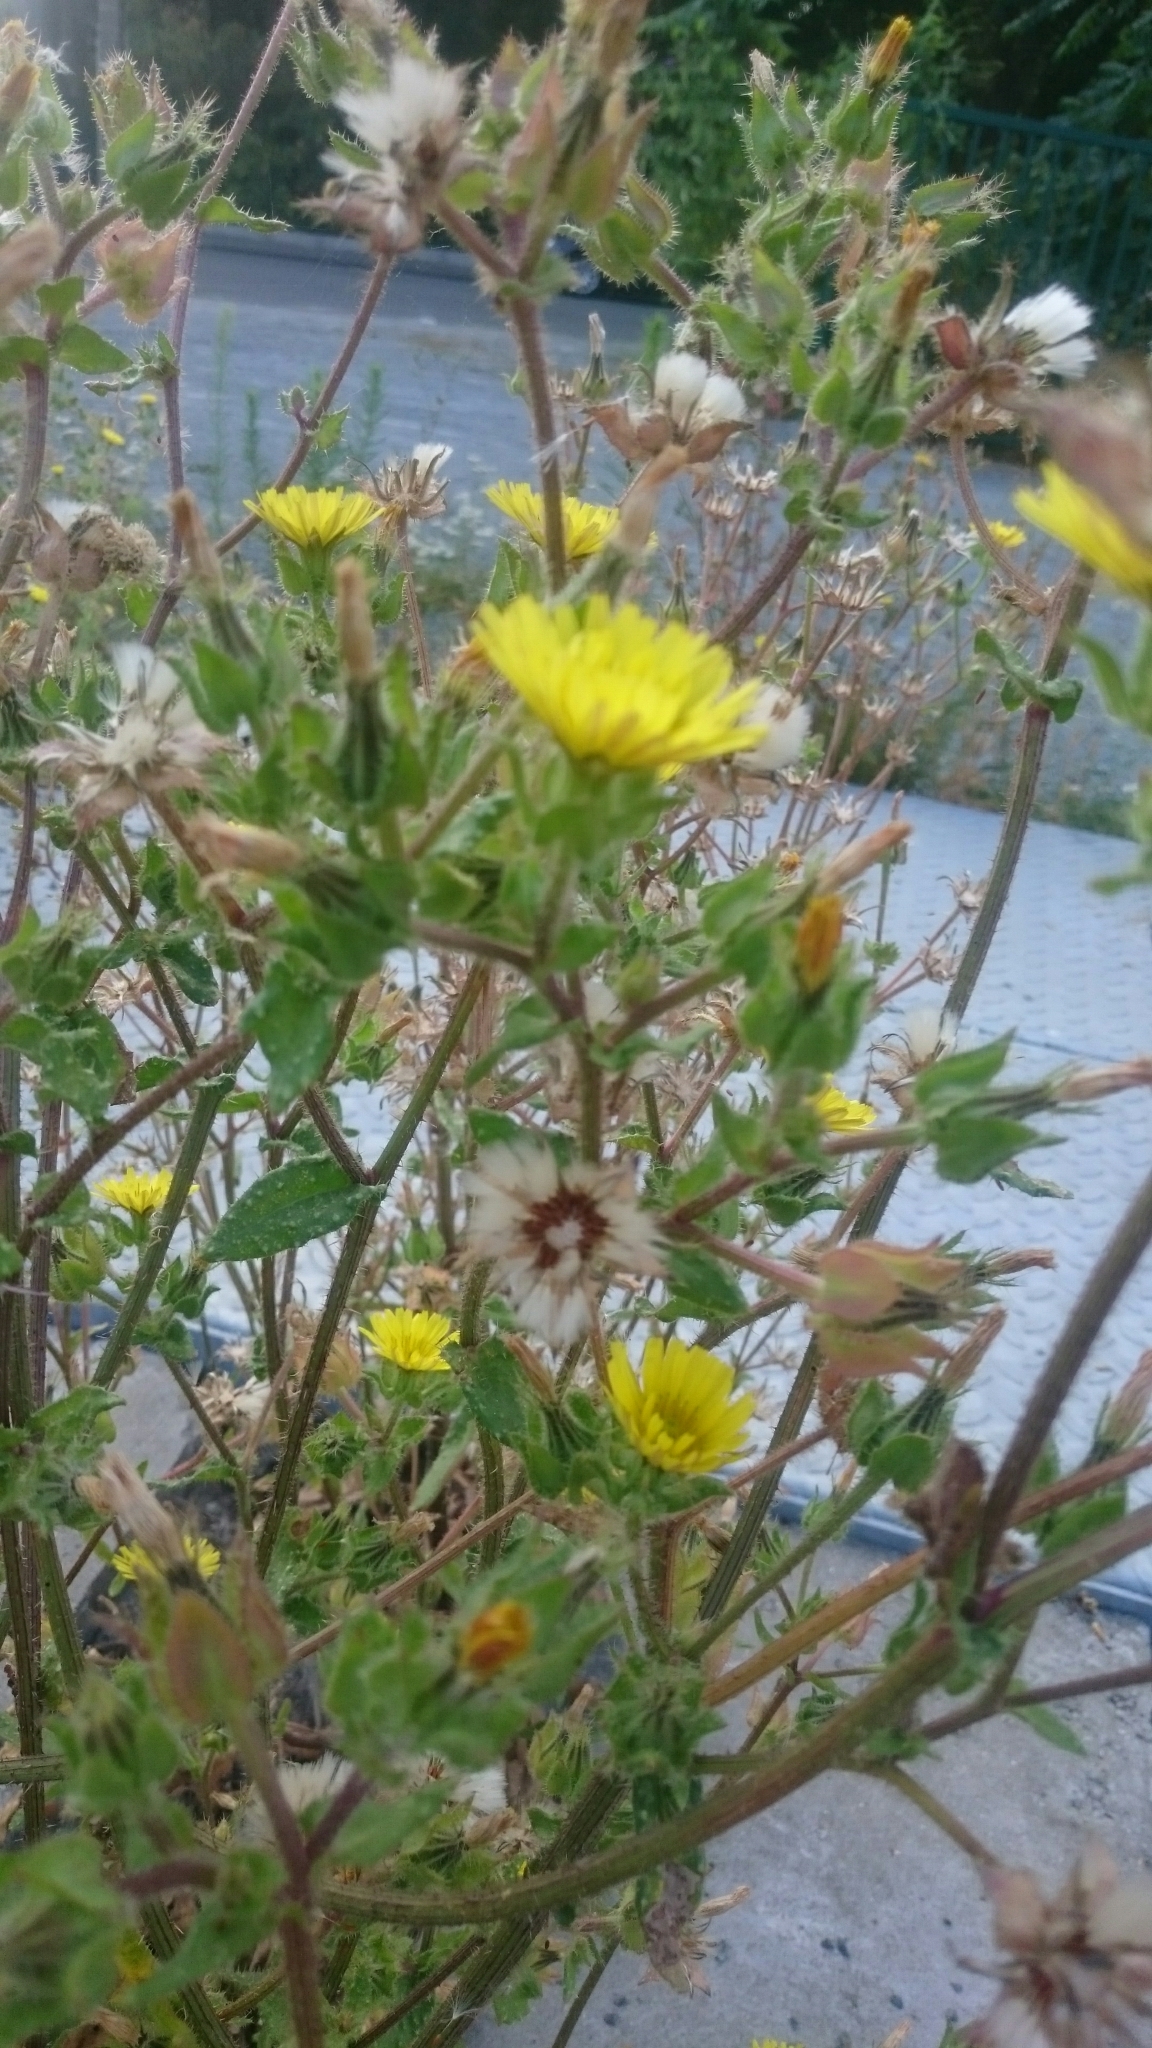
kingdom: Plantae
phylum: Tracheophyta
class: Magnoliopsida
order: Asterales
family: Asteraceae
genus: Helminthotheca
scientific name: Helminthotheca echioides
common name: Ox-tongue
